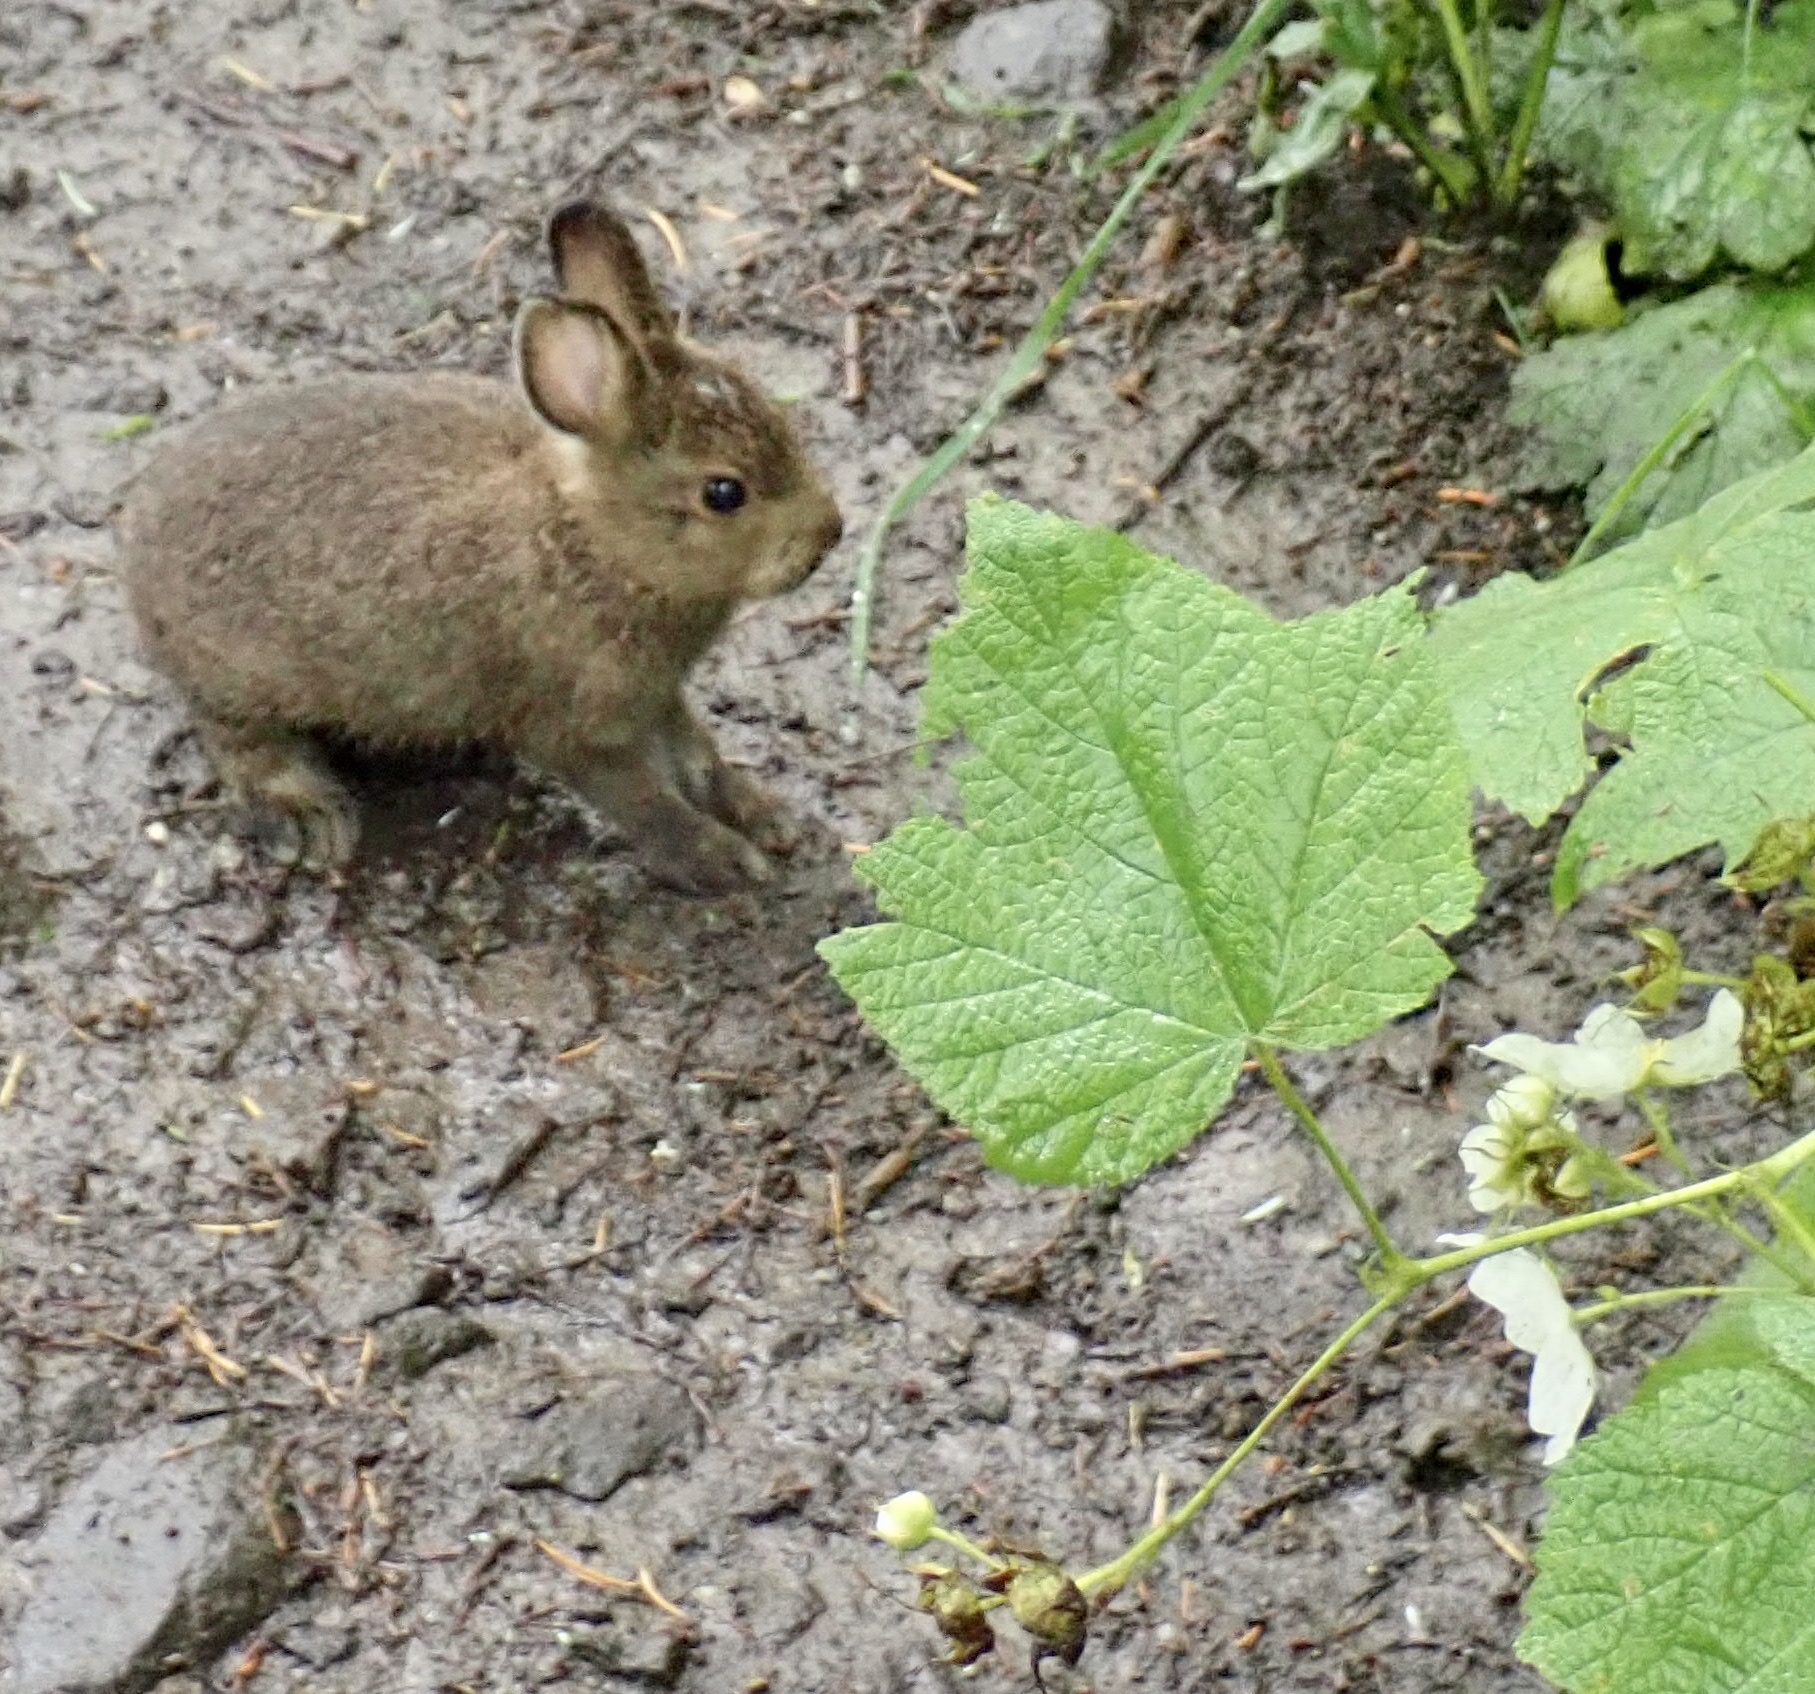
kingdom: Animalia
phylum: Chordata
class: Mammalia
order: Lagomorpha
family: Leporidae
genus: Lepus
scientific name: Lepus americanus
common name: Snowshoe hare
